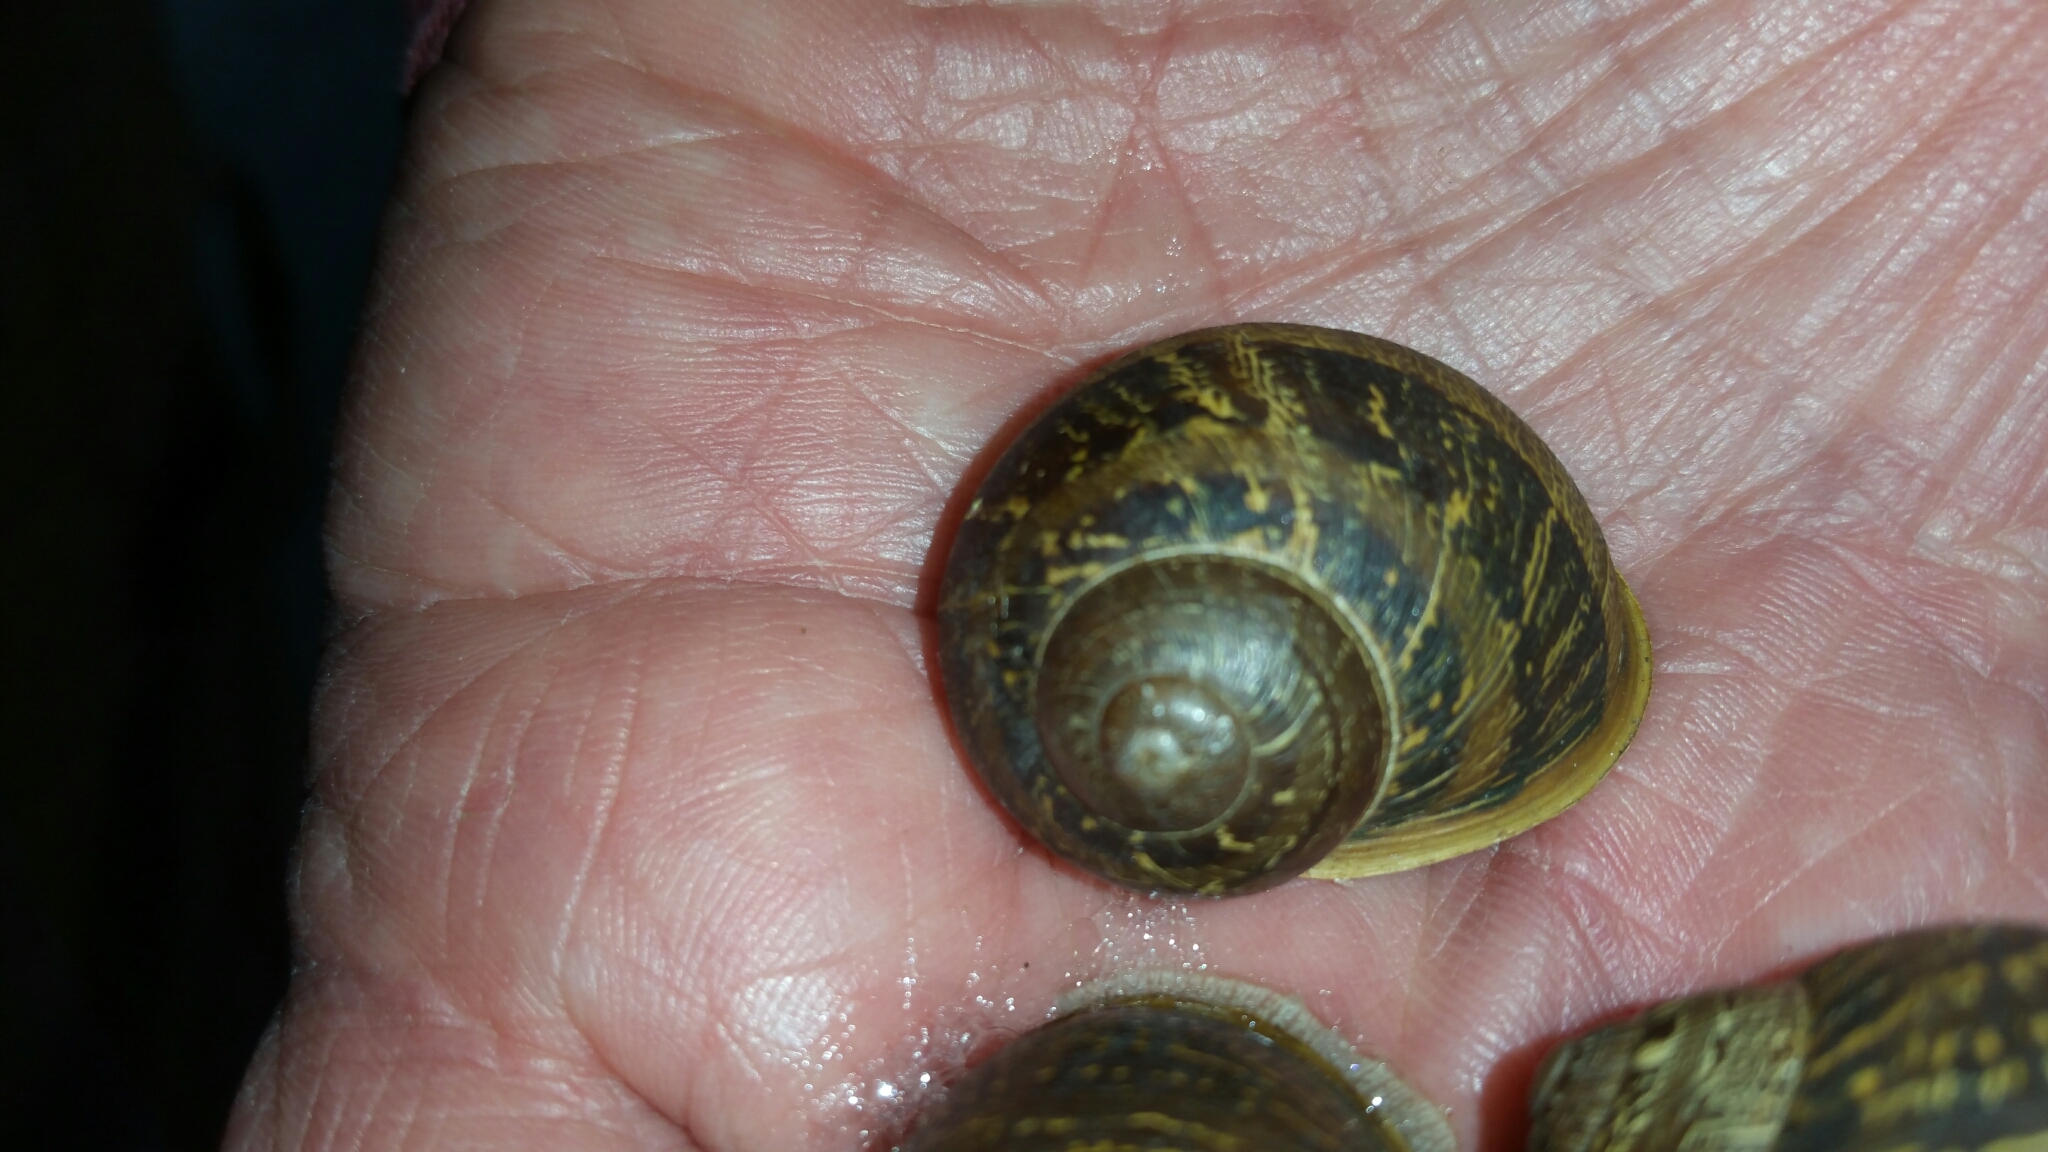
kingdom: Animalia
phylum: Mollusca
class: Gastropoda
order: Stylommatophora
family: Helicidae
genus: Cornu
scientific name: Cornu aspersum
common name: Brown garden snail
